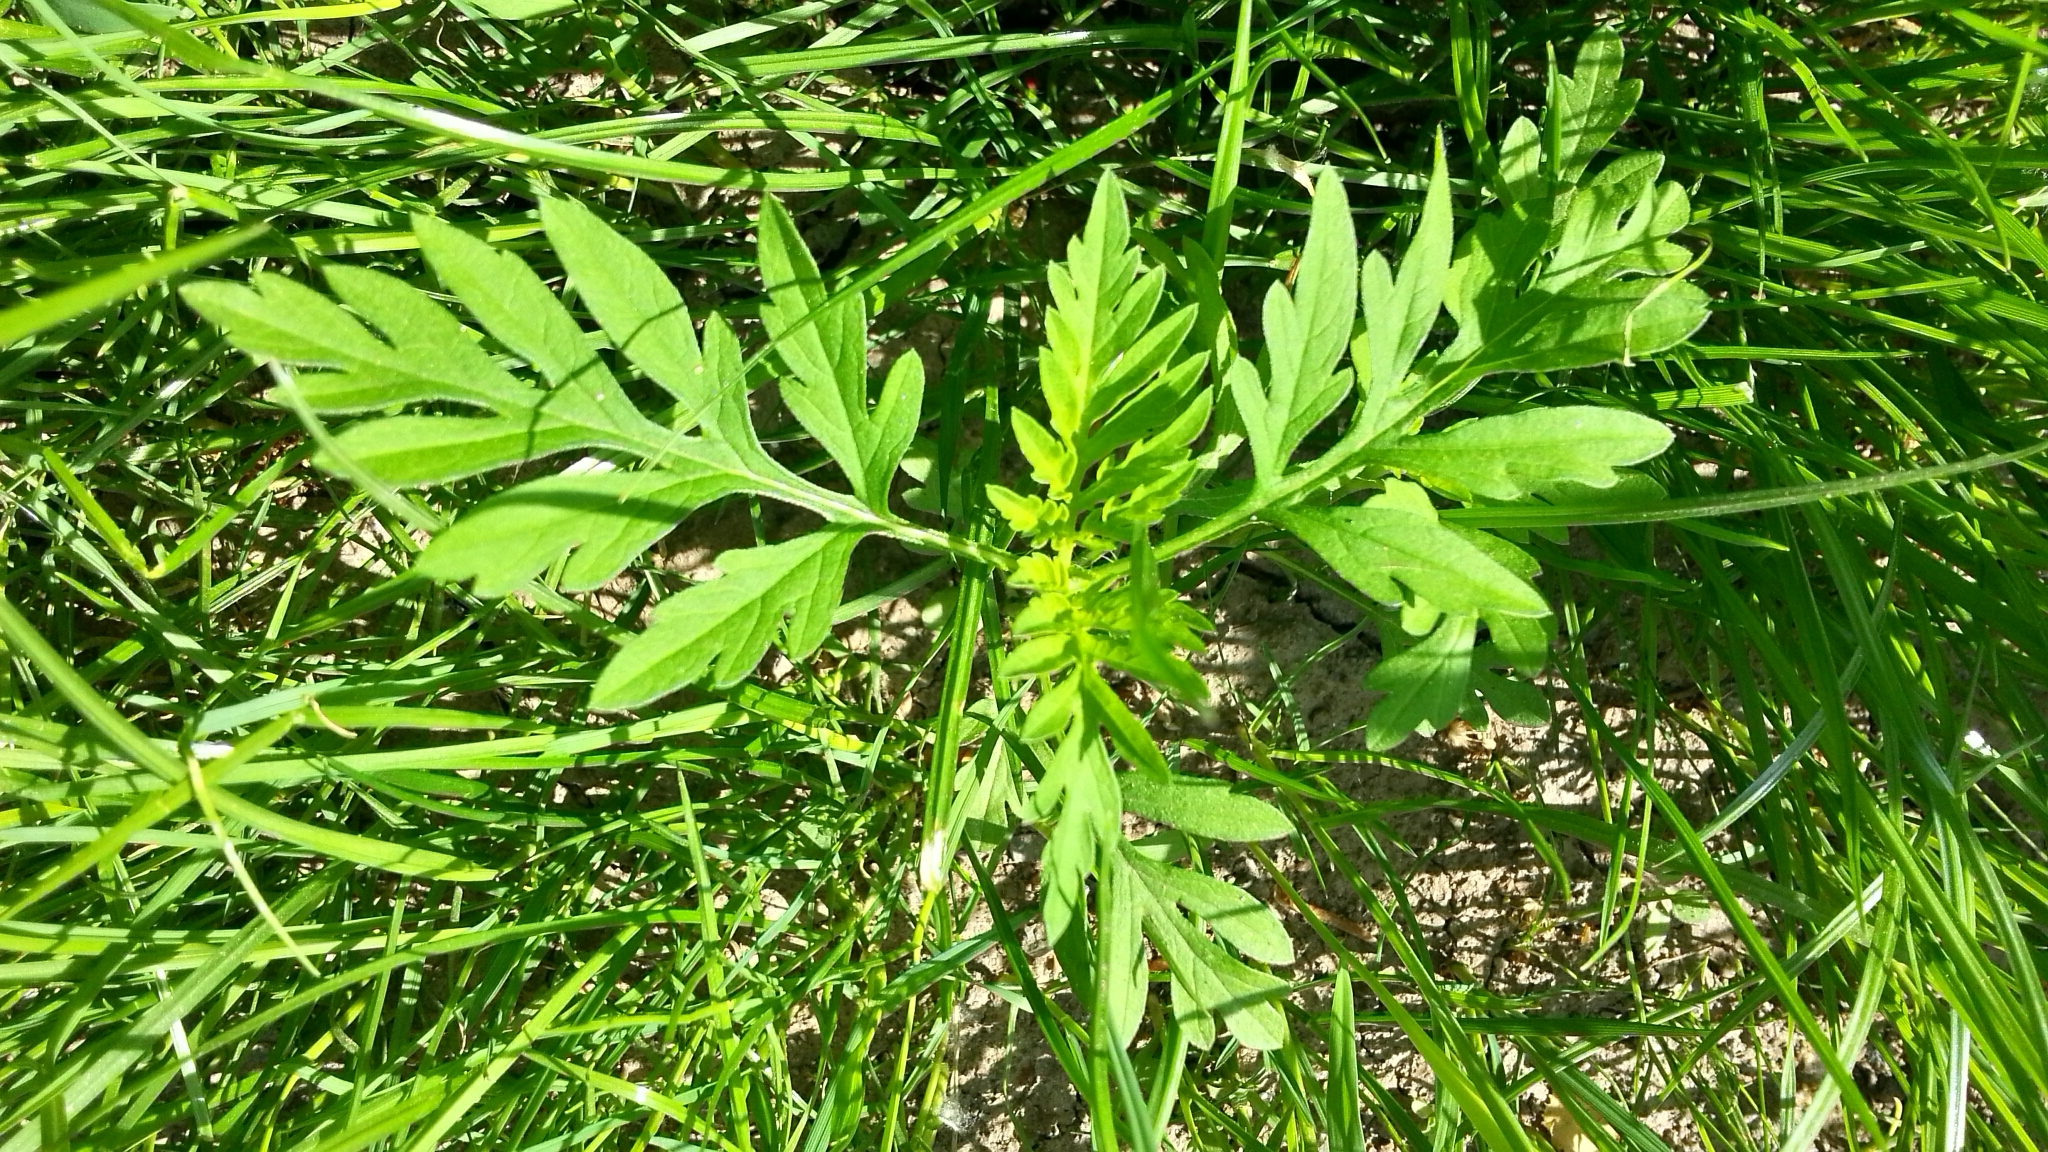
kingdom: Plantae
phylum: Tracheophyta
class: Magnoliopsida
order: Asterales
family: Asteraceae
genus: Ambrosia
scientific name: Ambrosia artemisiifolia
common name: Annual ragweed
